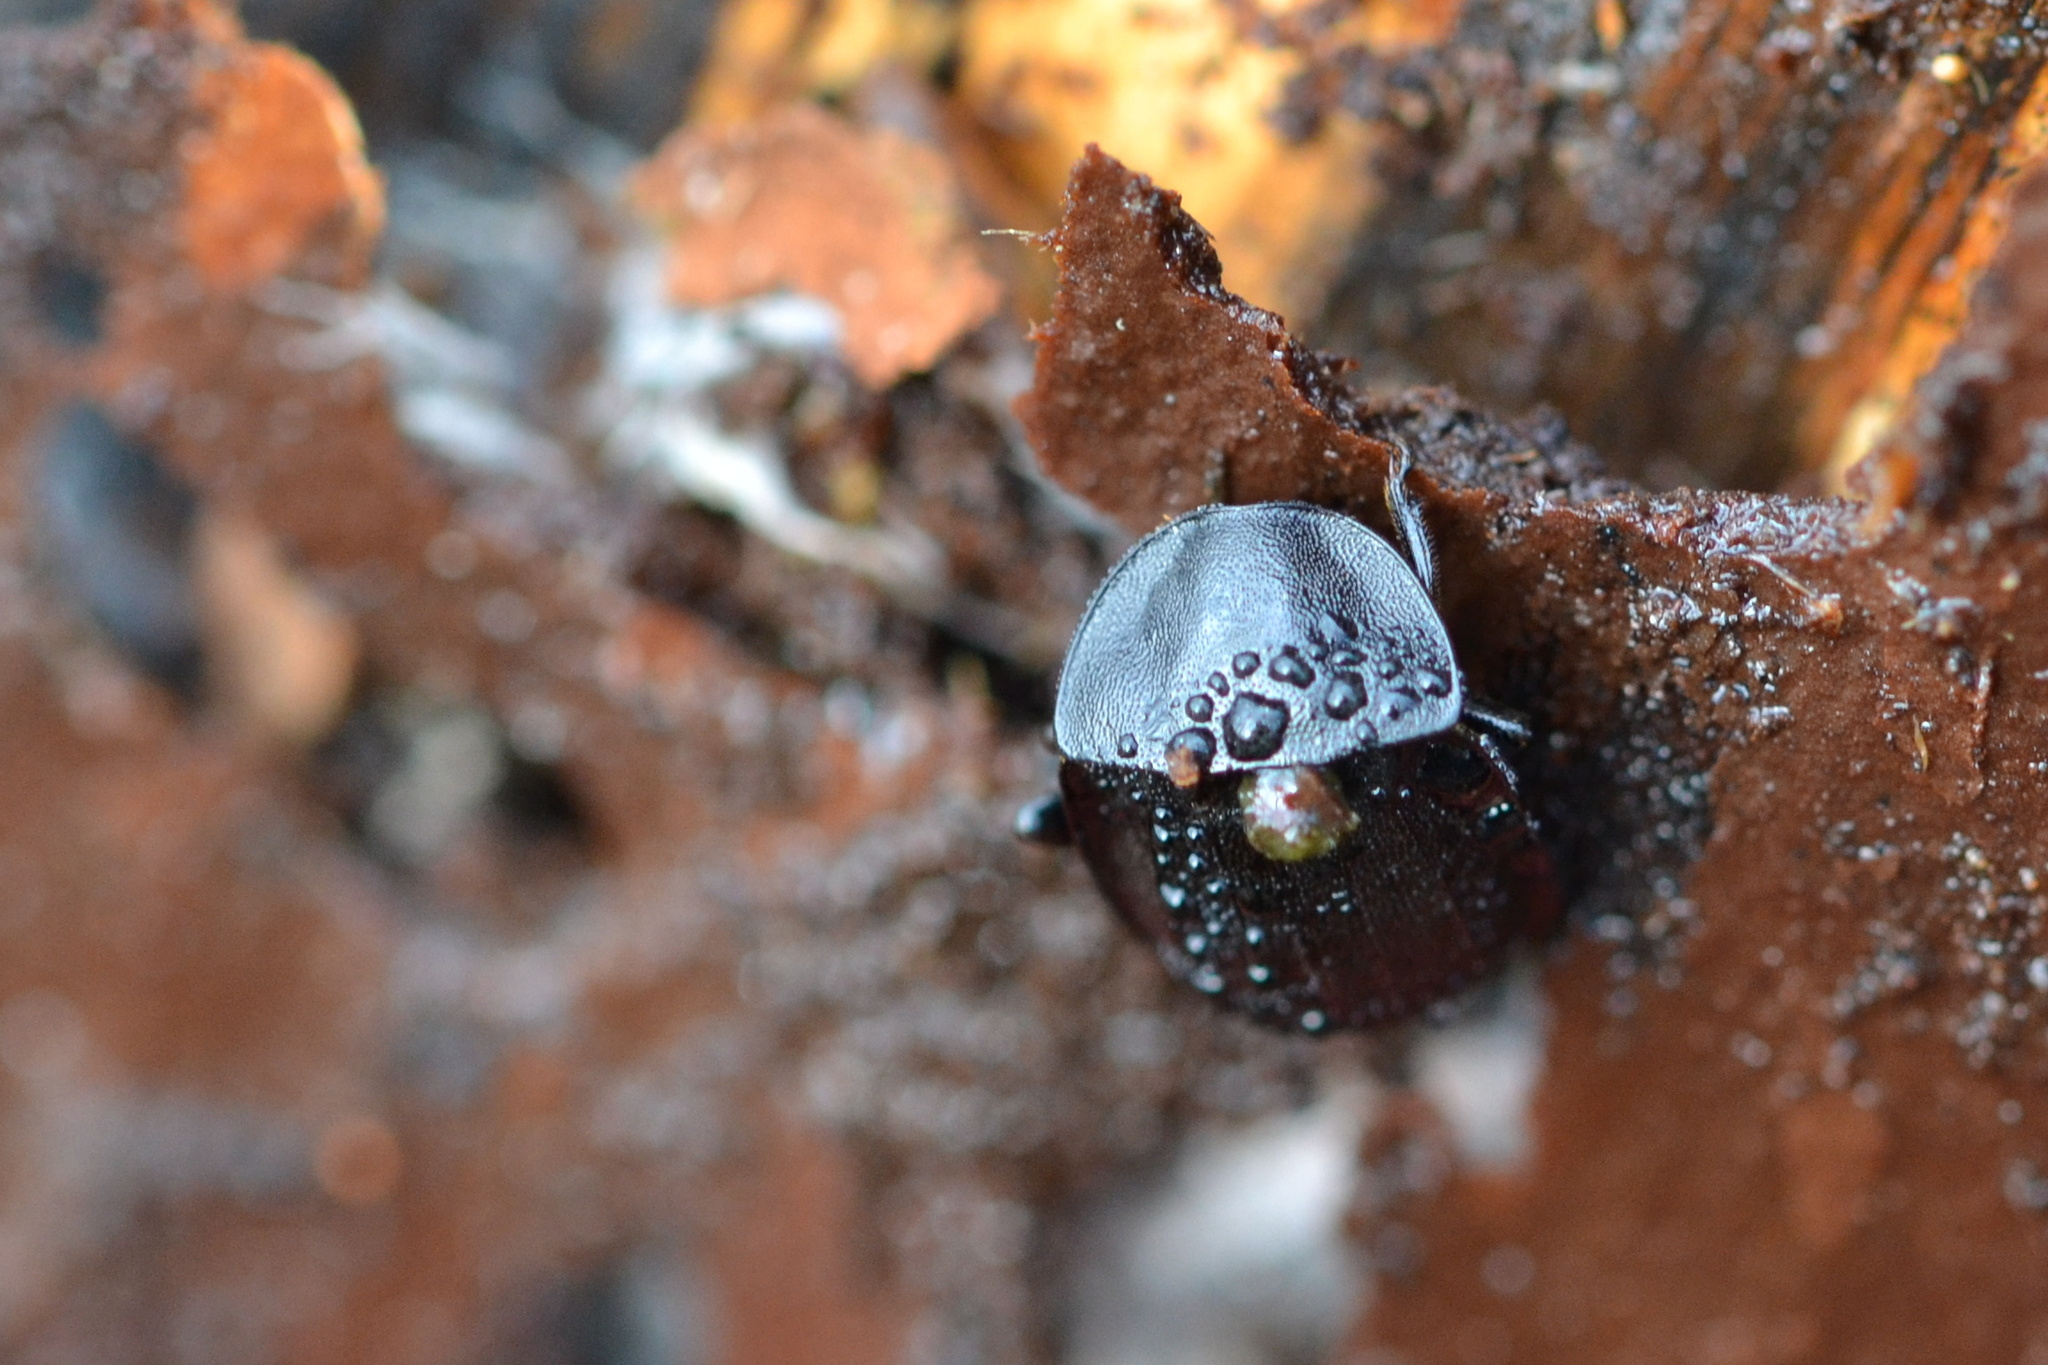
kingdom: Animalia
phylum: Arthropoda
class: Insecta
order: Coleoptera
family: Staphylinidae
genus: Silpha
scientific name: Silpha atrata
